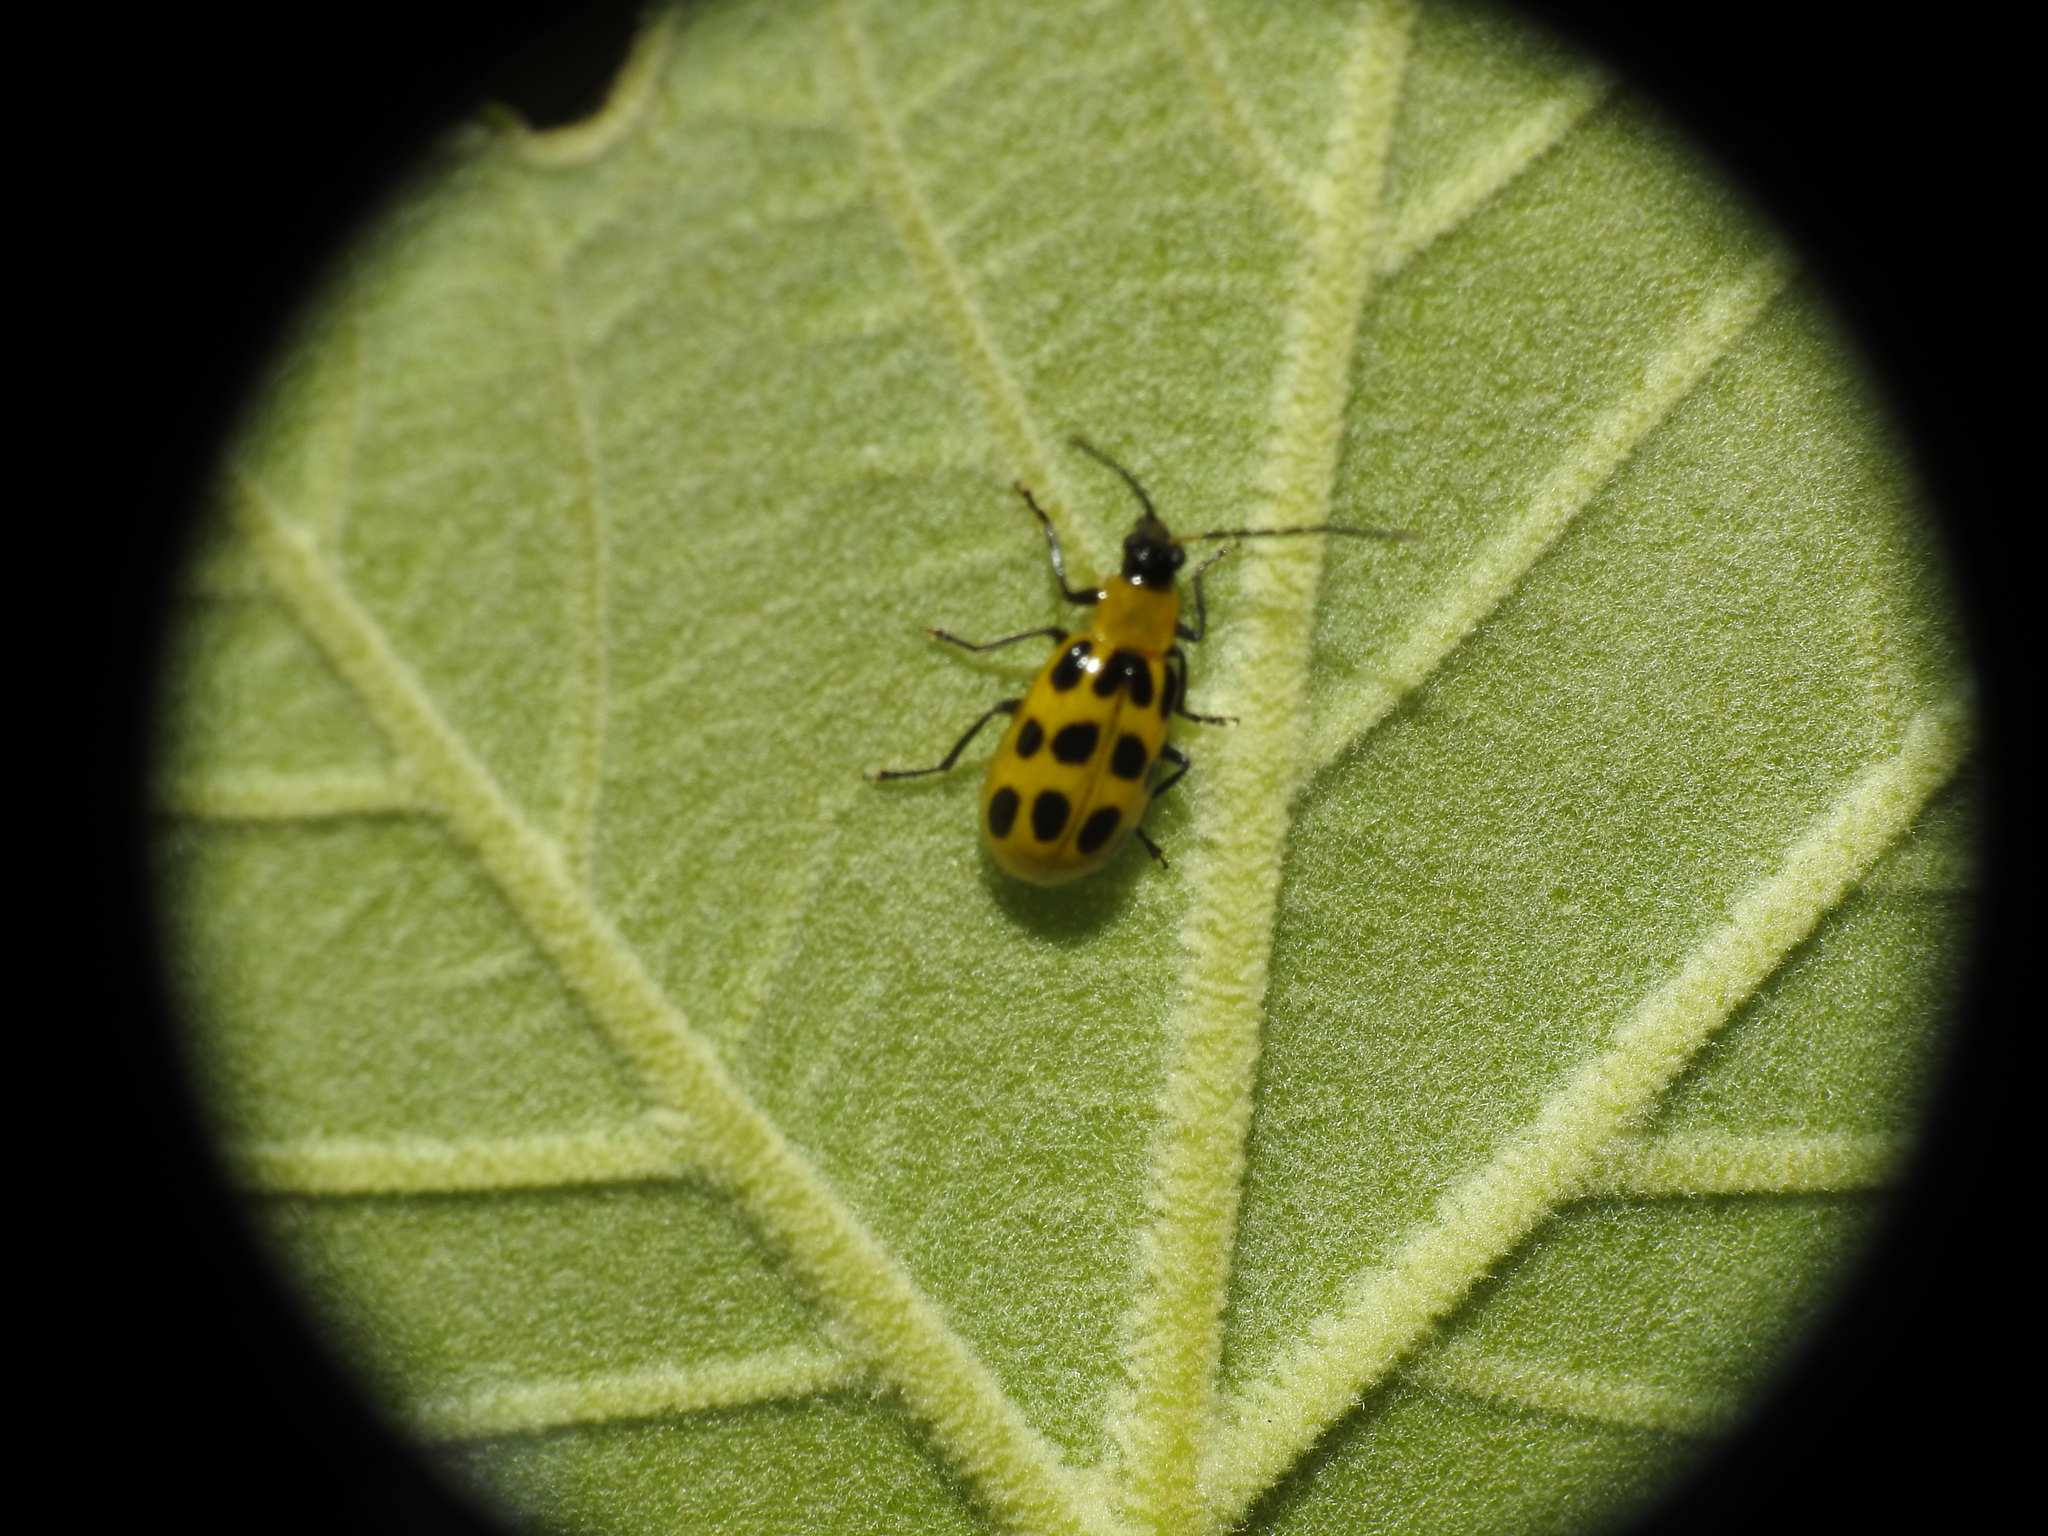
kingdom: Animalia
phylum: Arthropoda
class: Insecta
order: Coleoptera
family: Chrysomelidae
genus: Diabrotica
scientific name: Diabrotica undecimpunctata
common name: Spotted cucumber beetle
